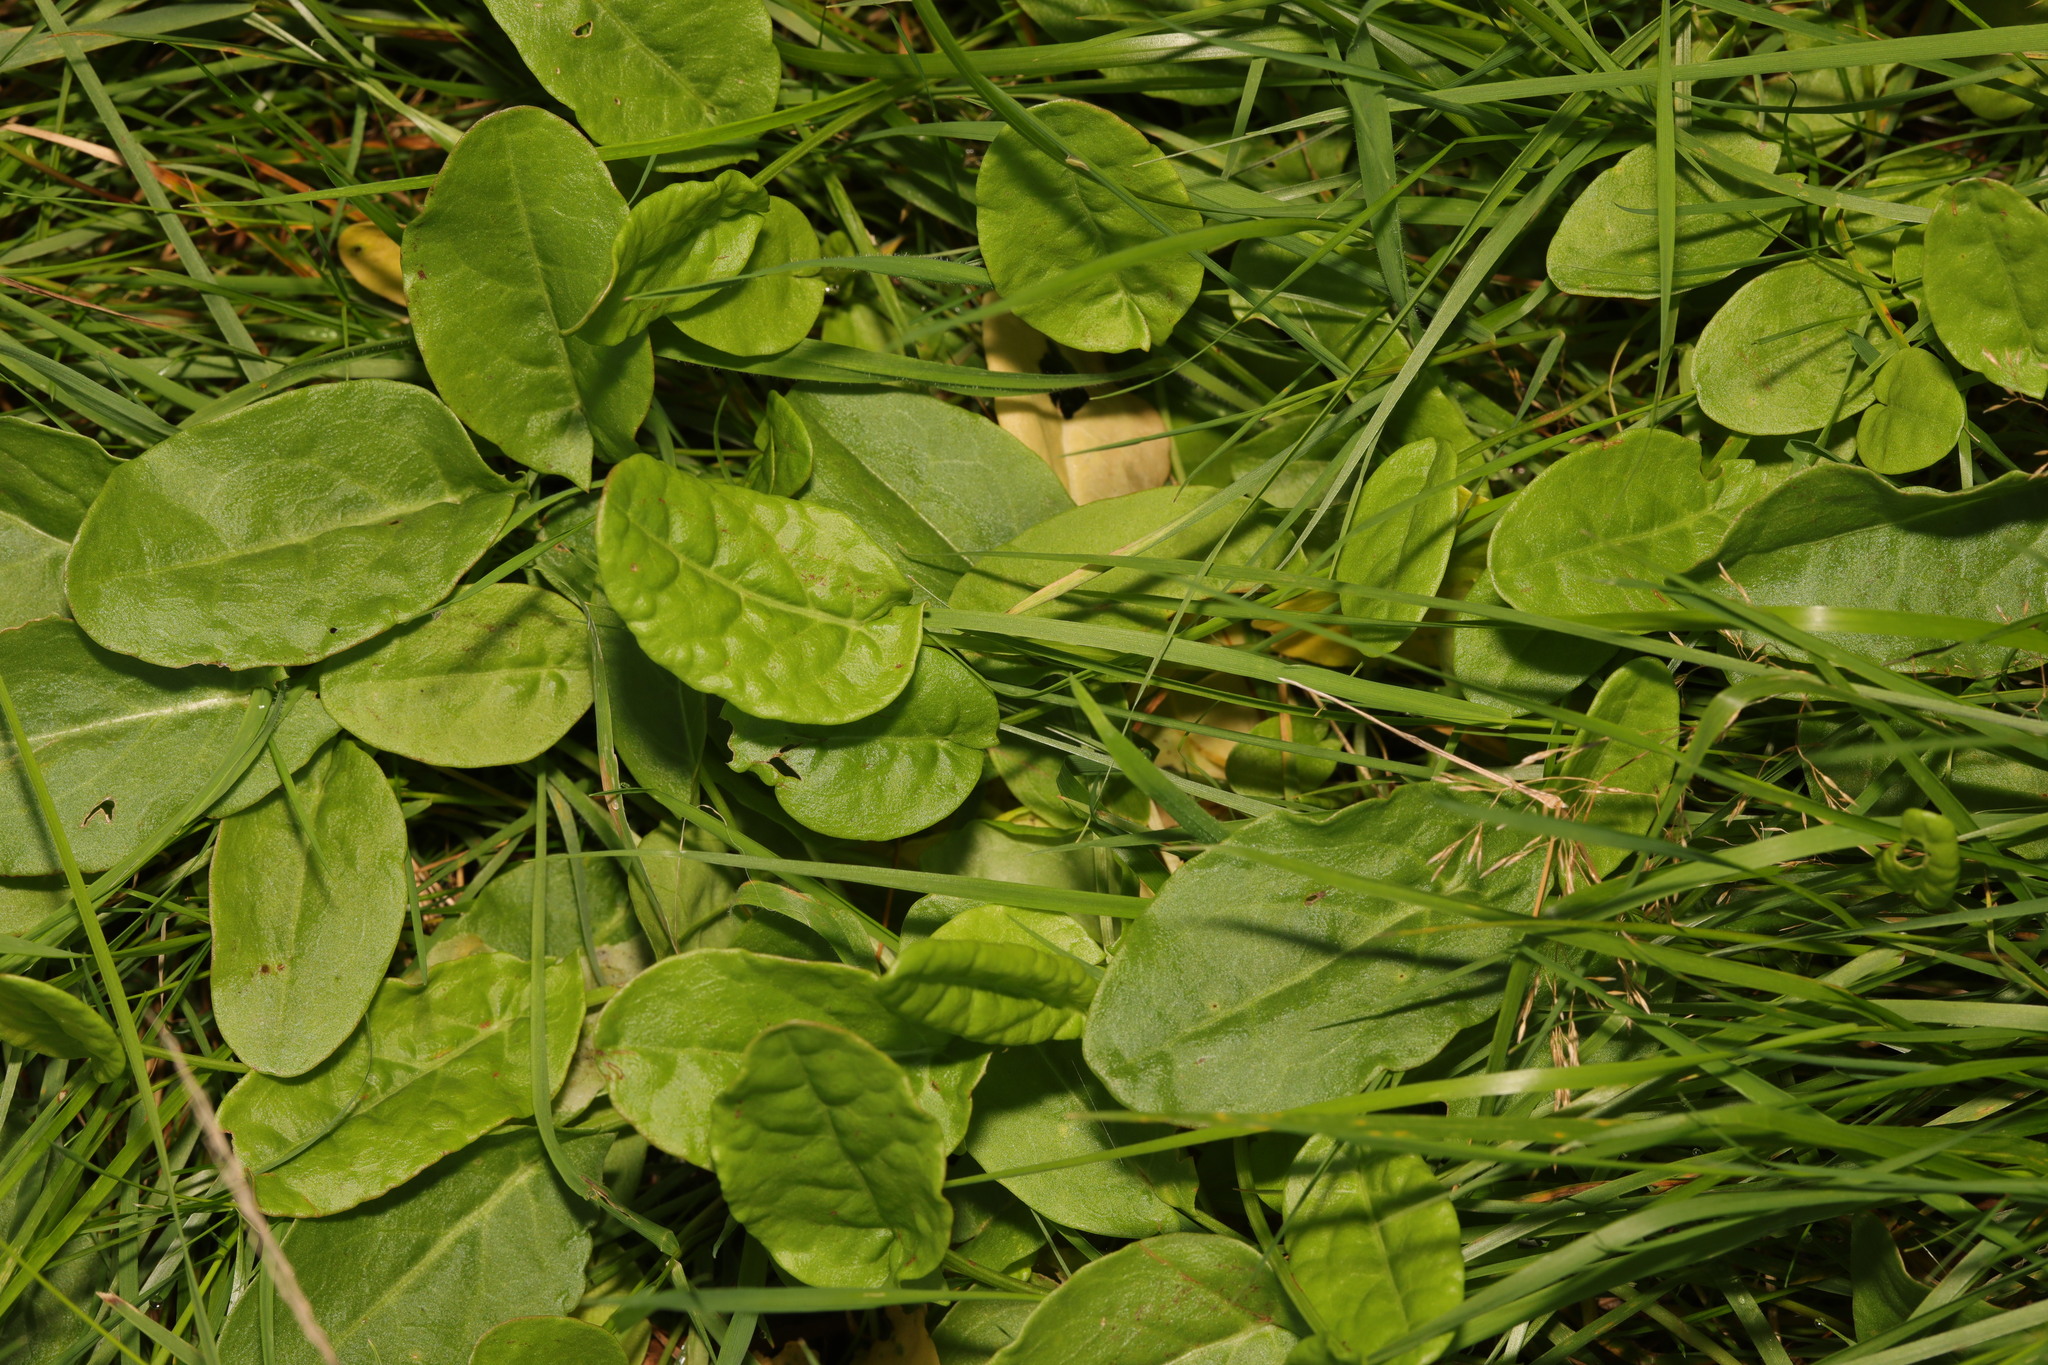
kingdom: Plantae
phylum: Tracheophyta
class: Magnoliopsida
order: Caryophyllales
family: Polygonaceae
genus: Rumex
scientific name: Rumex acetosa
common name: Garden sorrel
